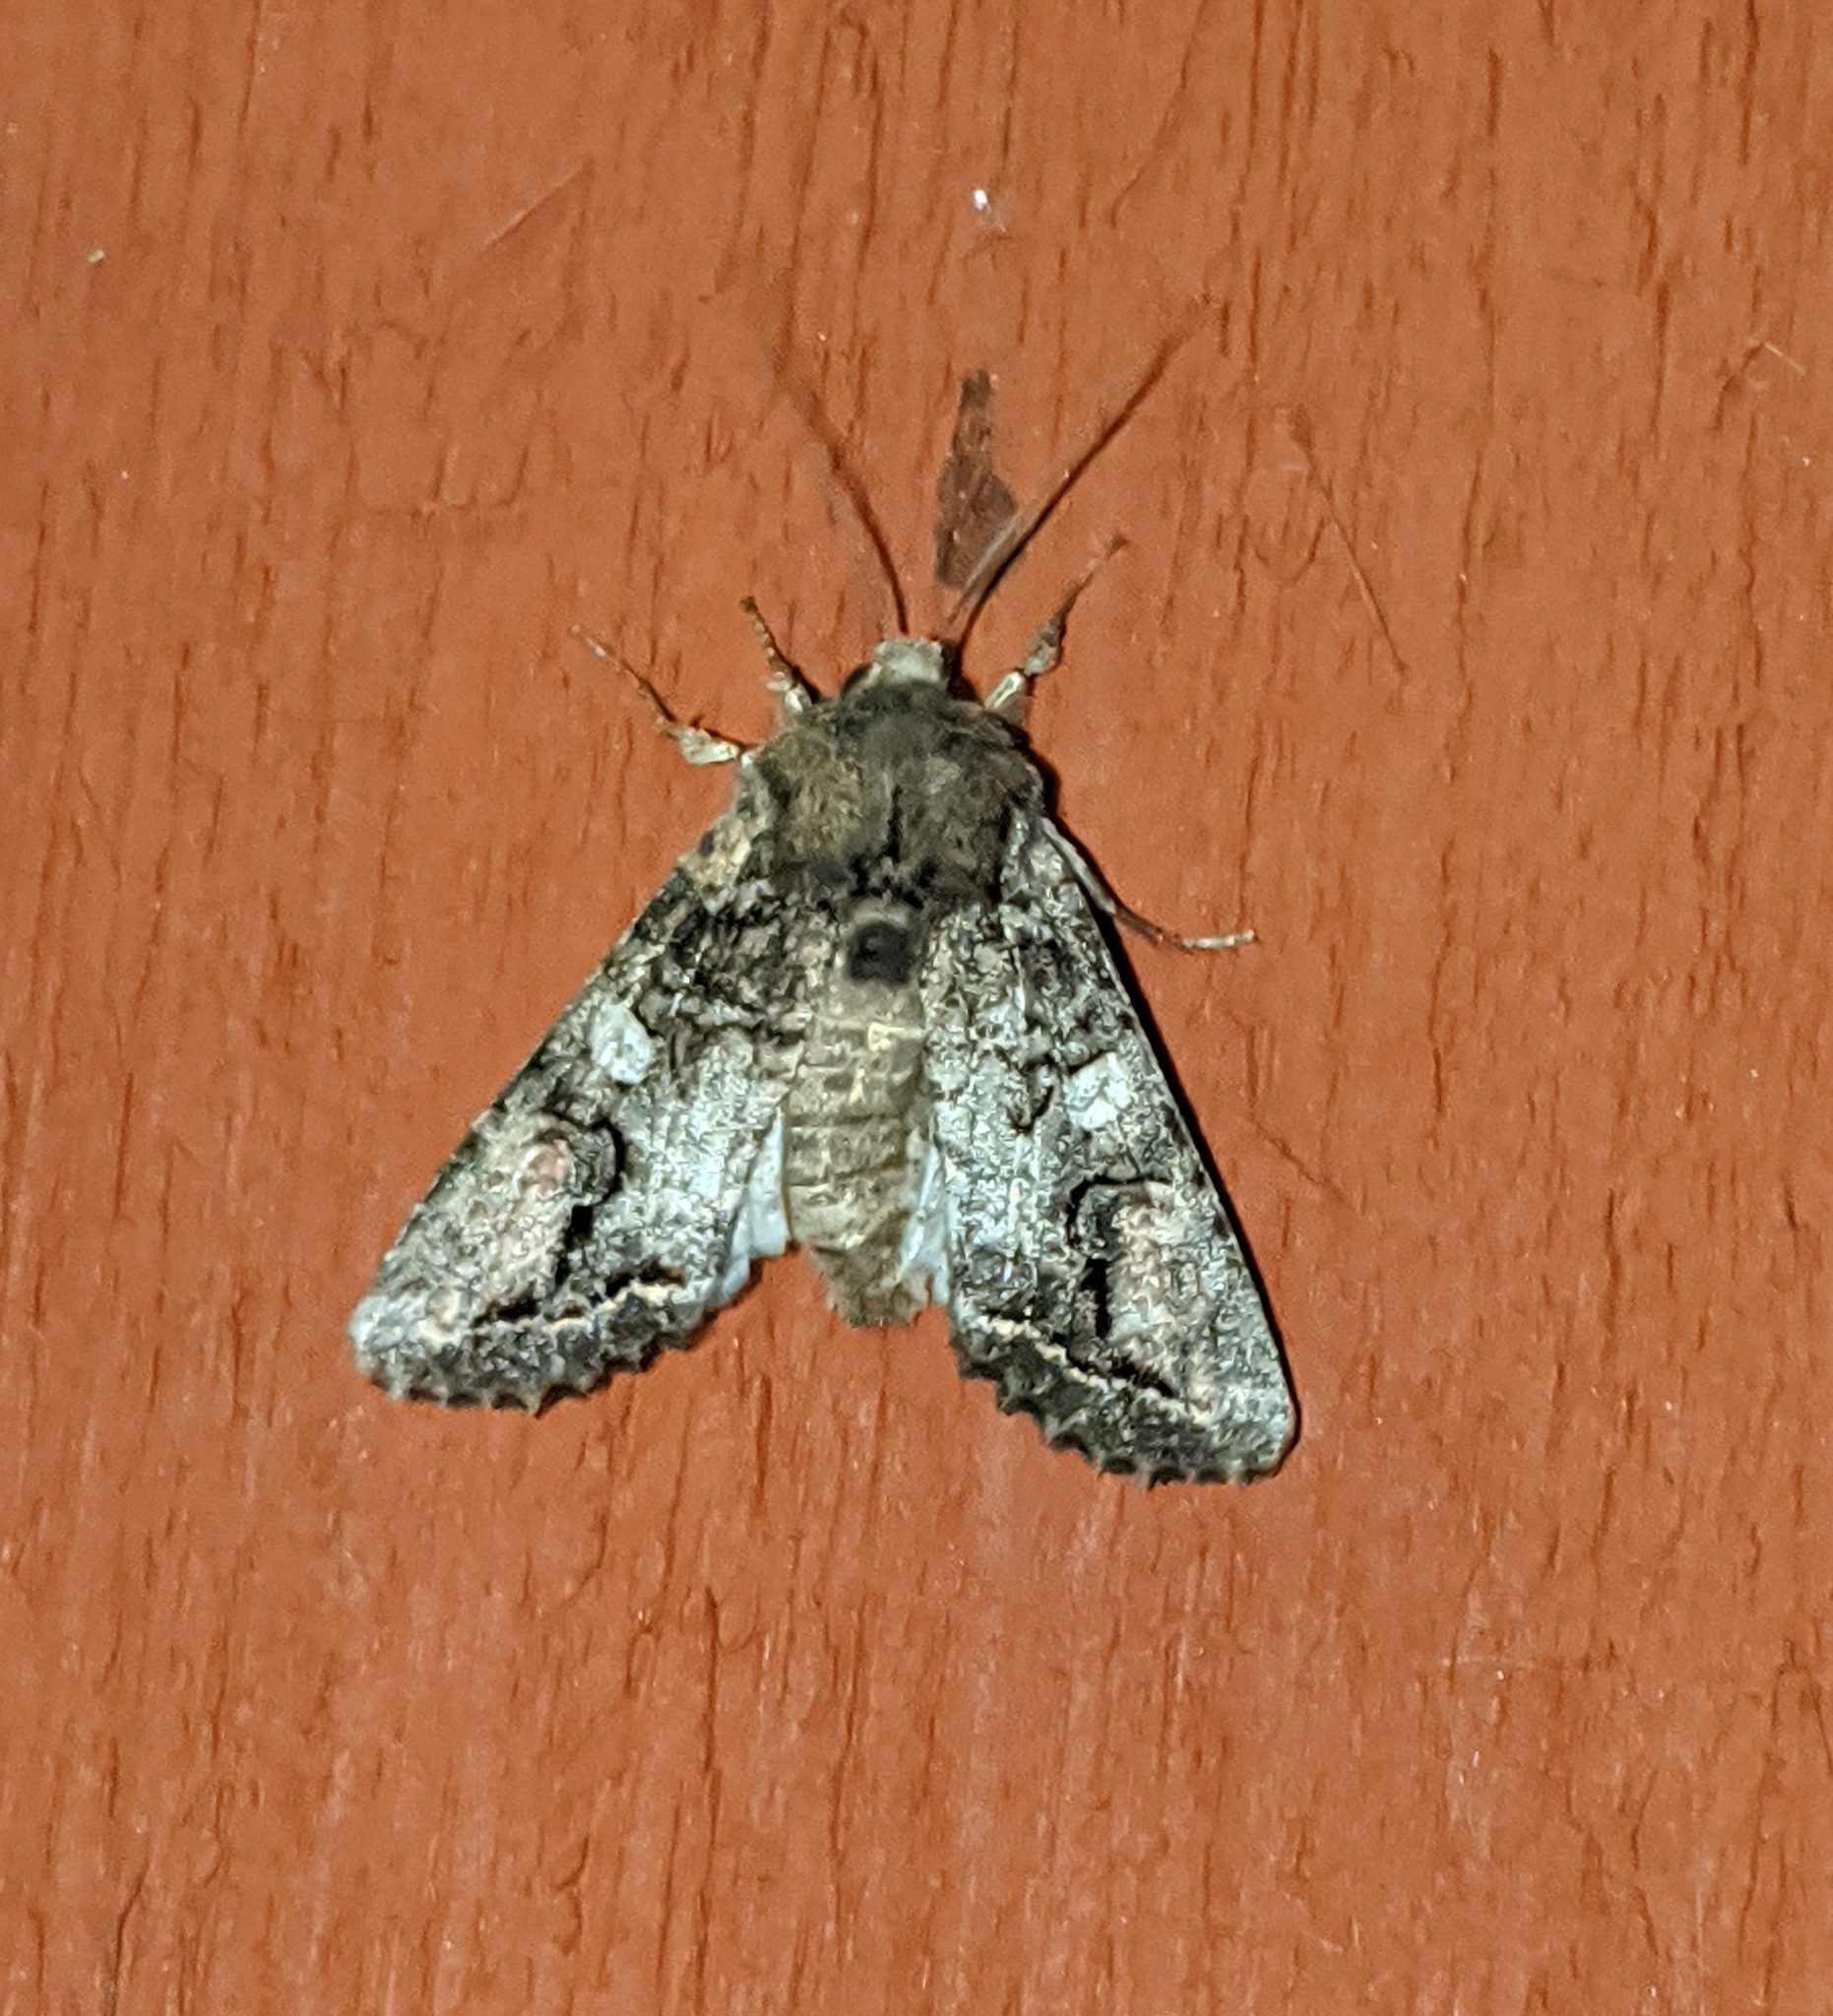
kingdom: Animalia
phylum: Arthropoda
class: Insecta
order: Lepidoptera
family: Noctuidae
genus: Egira
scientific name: Egira perlubens
